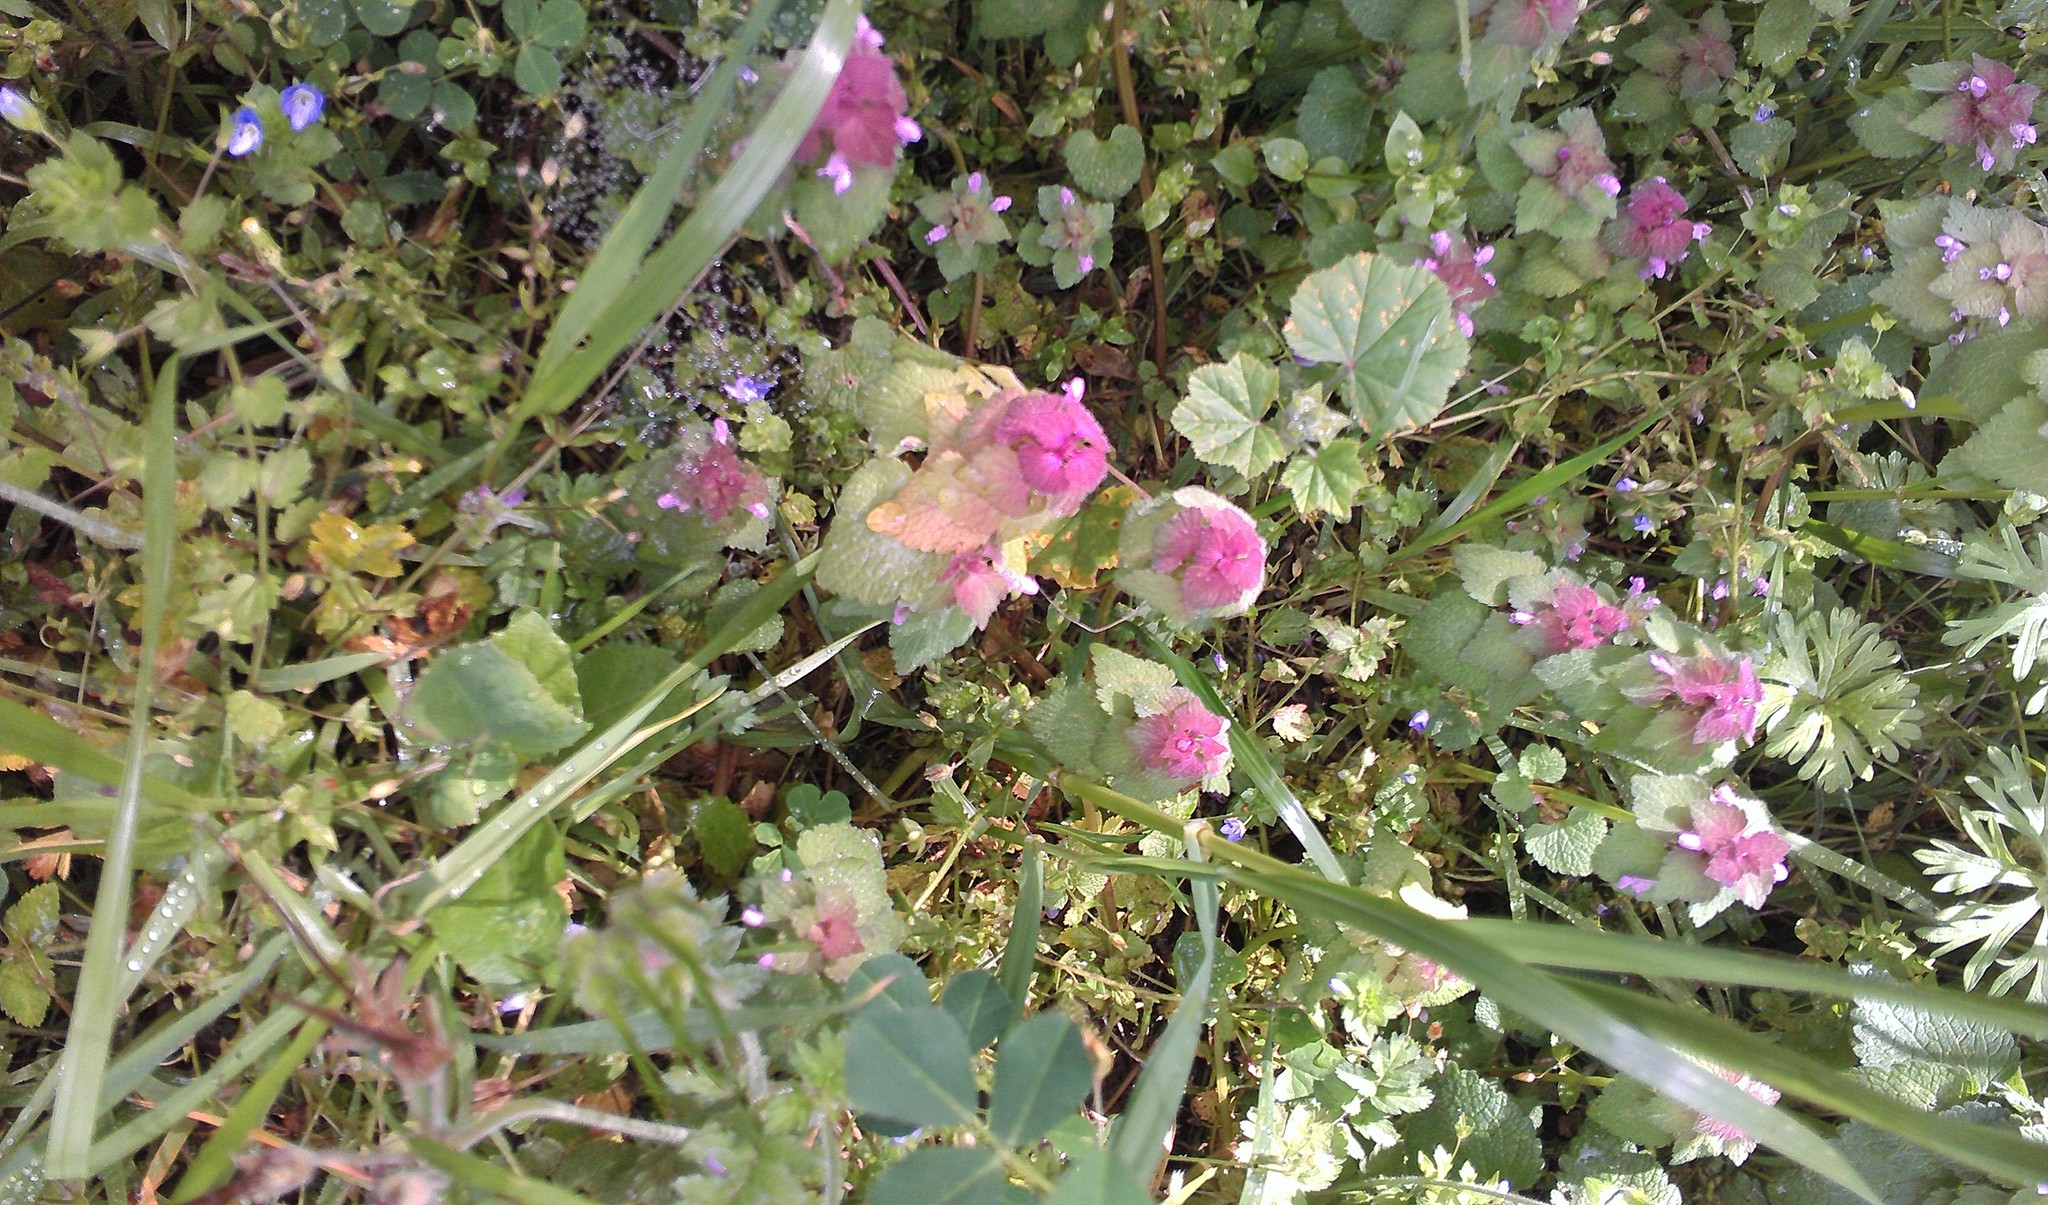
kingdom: Plantae
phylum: Tracheophyta
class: Magnoliopsida
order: Lamiales
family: Lamiaceae
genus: Lamium
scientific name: Lamium purpureum
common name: Red dead-nettle
